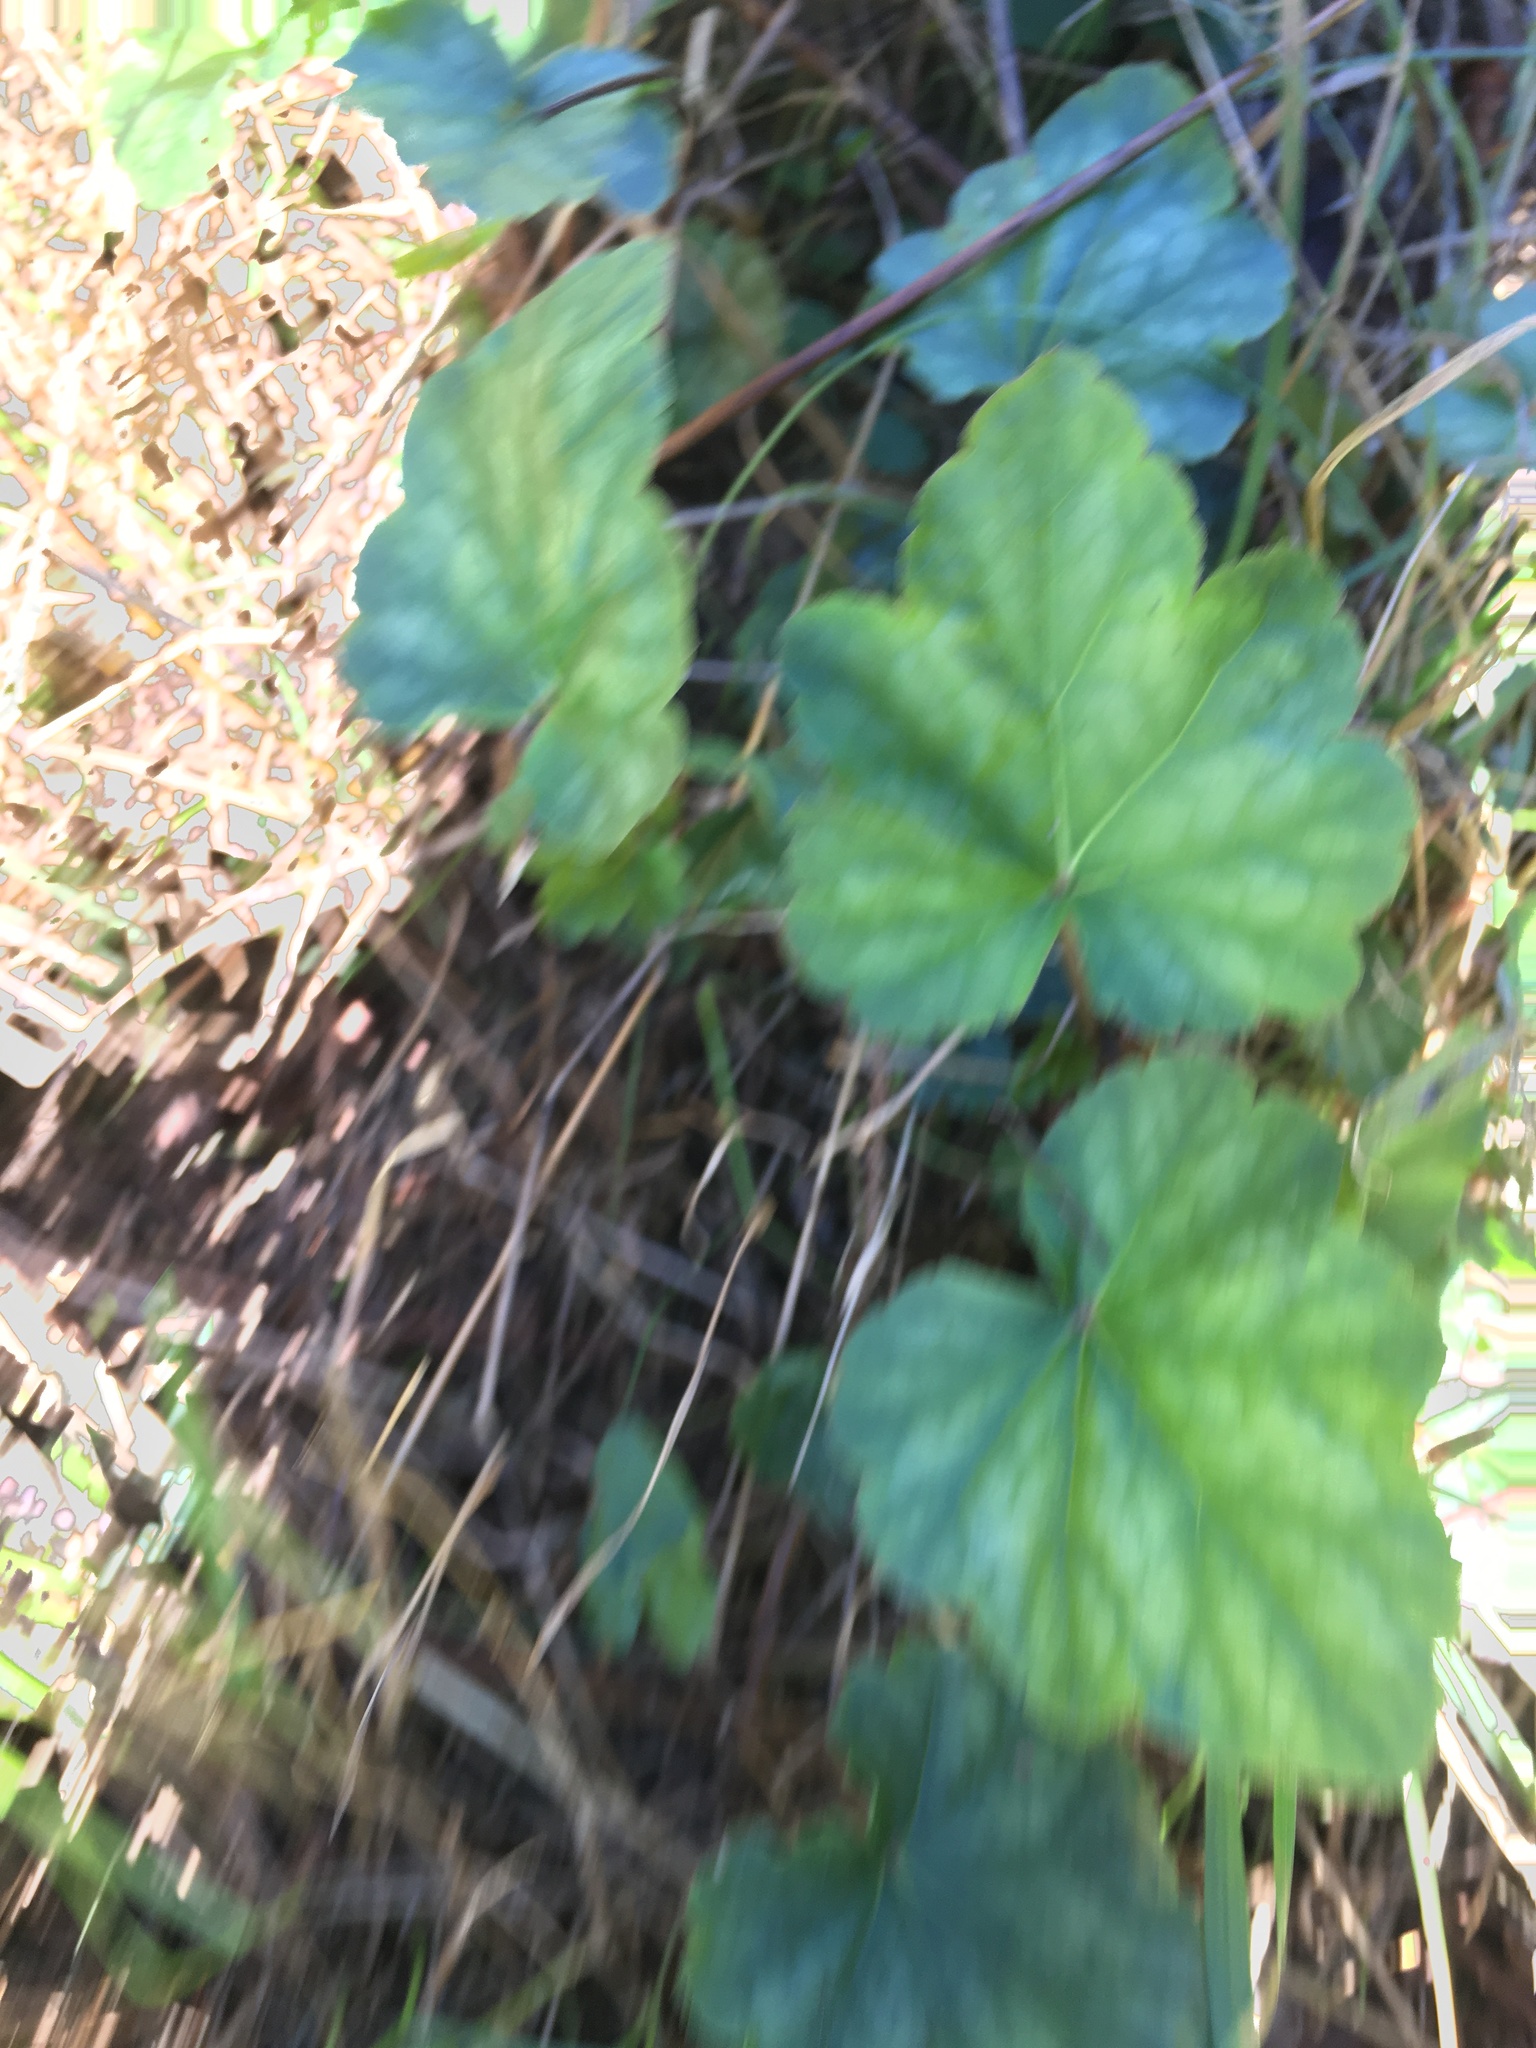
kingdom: Plantae
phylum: Tracheophyta
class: Magnoliopsida
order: Saxifragales
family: Saxifragaceae
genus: Heuchera
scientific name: Heuchera caroliniana
